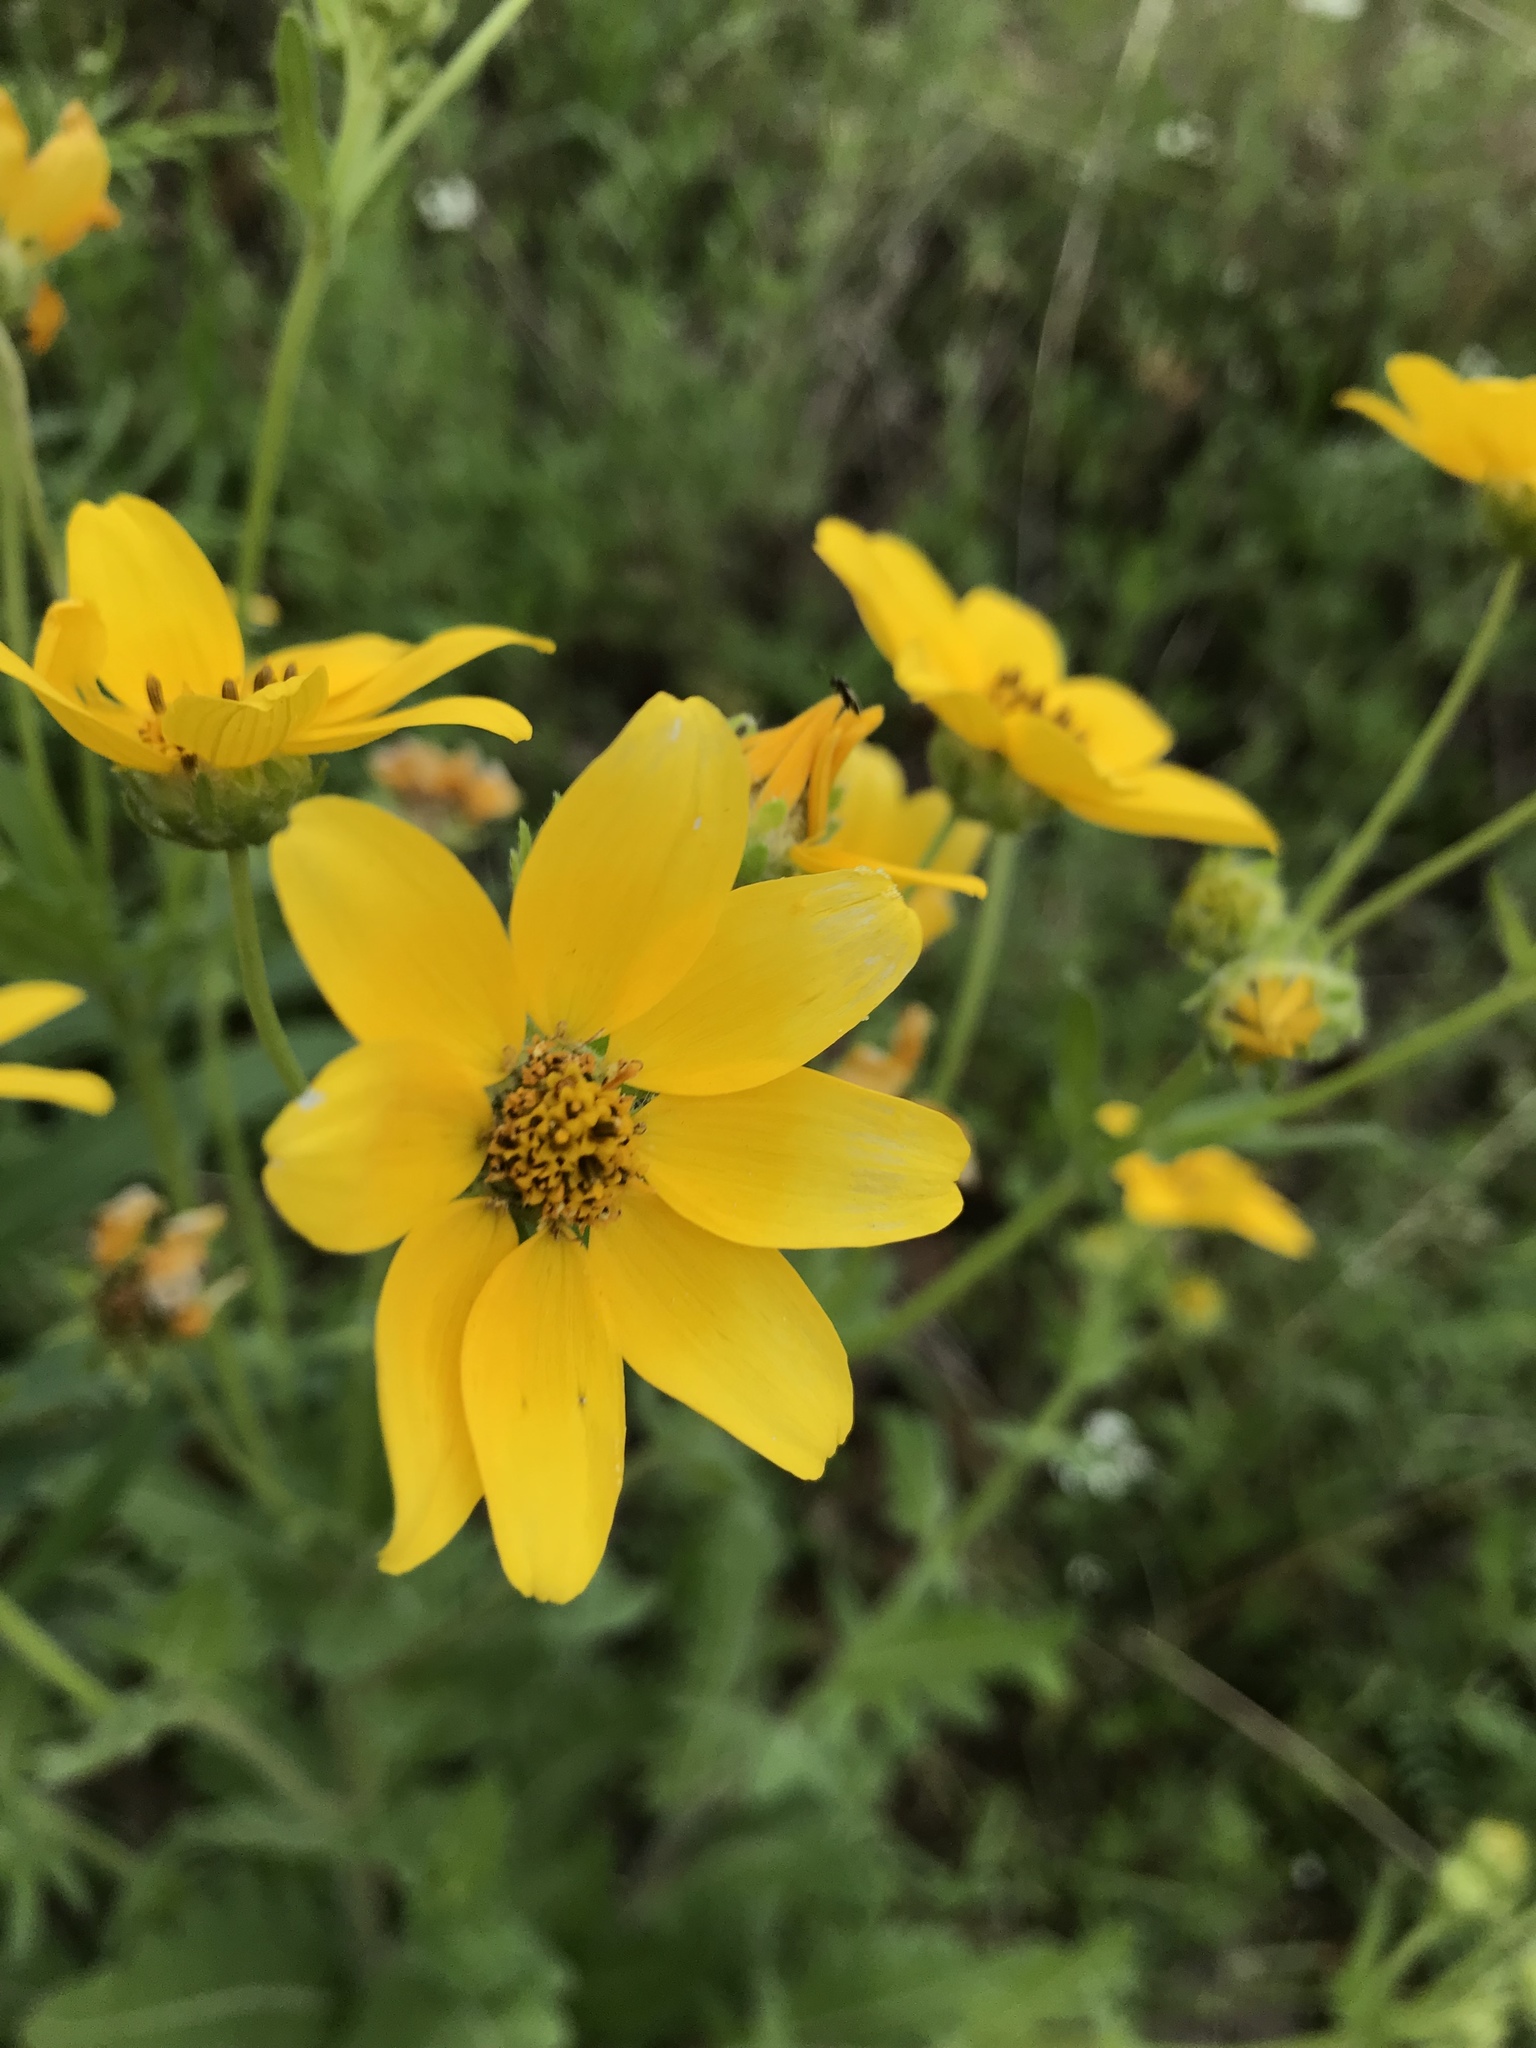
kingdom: Plantae
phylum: Tracheophyta
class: Magnoliopsida
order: Asterales
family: Asteraceae
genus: Engelmannia
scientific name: Engelmannia peristenia
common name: Engelmann's daisy
